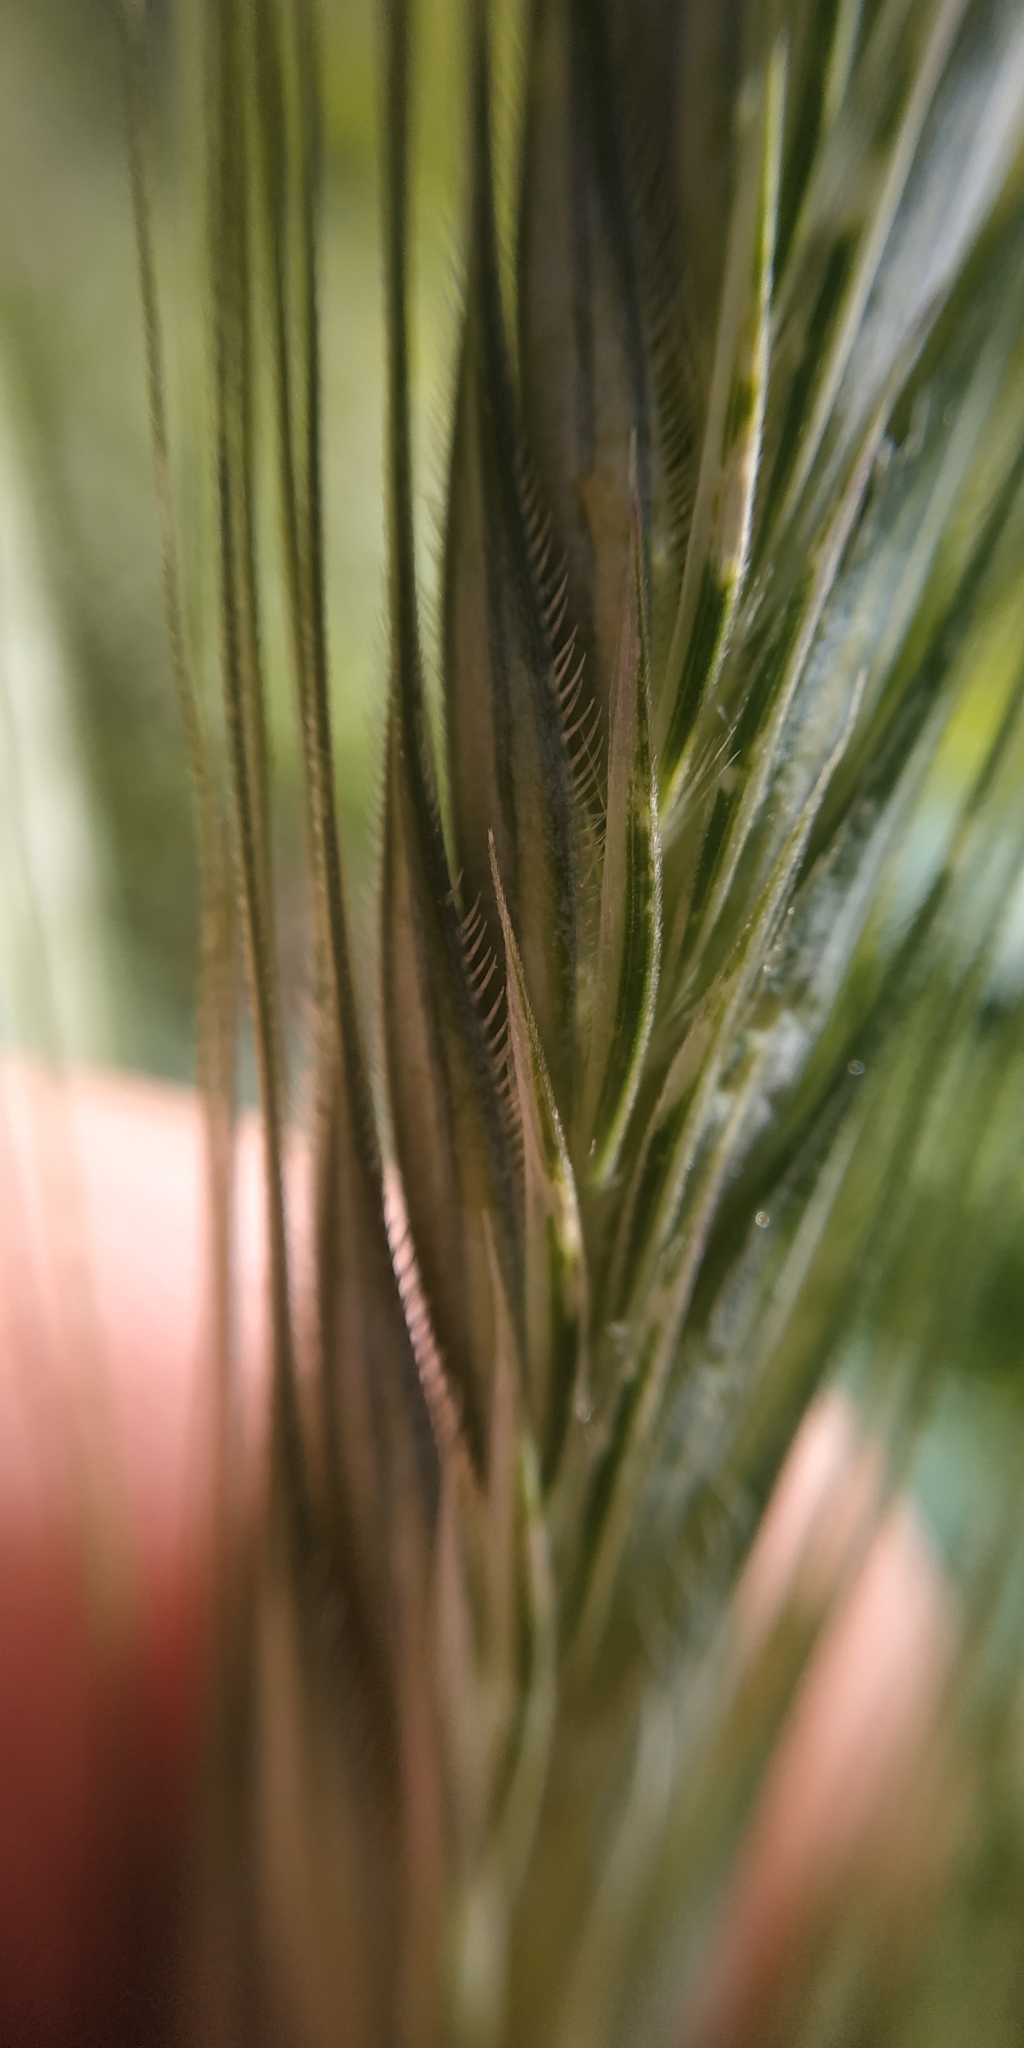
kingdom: Plantae
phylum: Tracheophyta
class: Liliopsida
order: Poales
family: Poaceae
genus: Secale
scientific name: Secale cereale
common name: Rye
